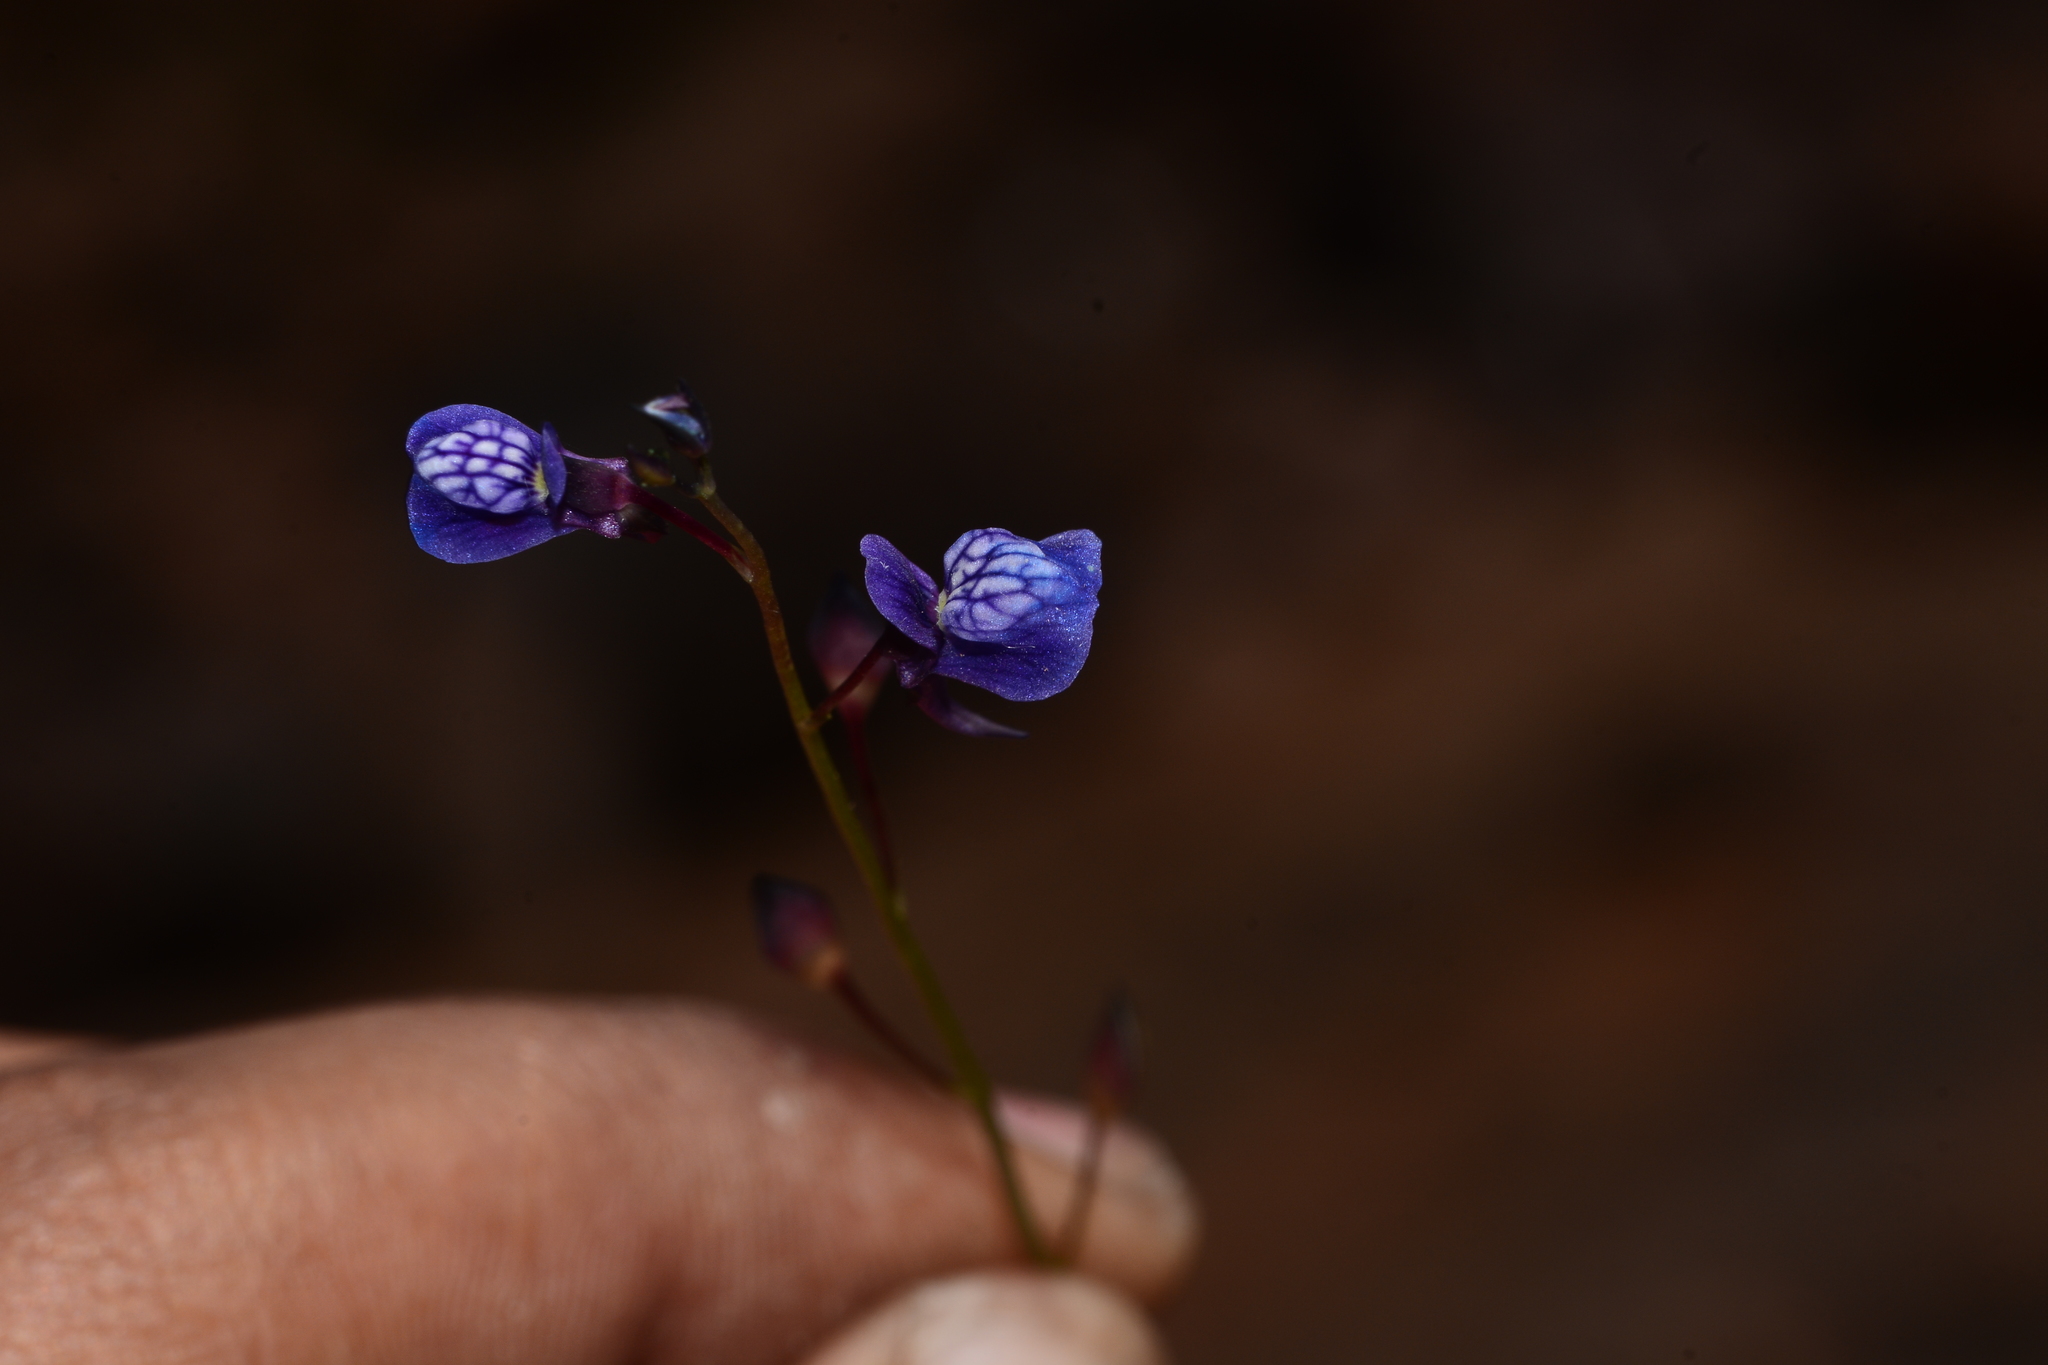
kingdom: Plantae
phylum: Tracheophyta
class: Magnoliopsida
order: Lamiales
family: Lentibulariaceae
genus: Utricularia
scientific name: Utricularia babui
